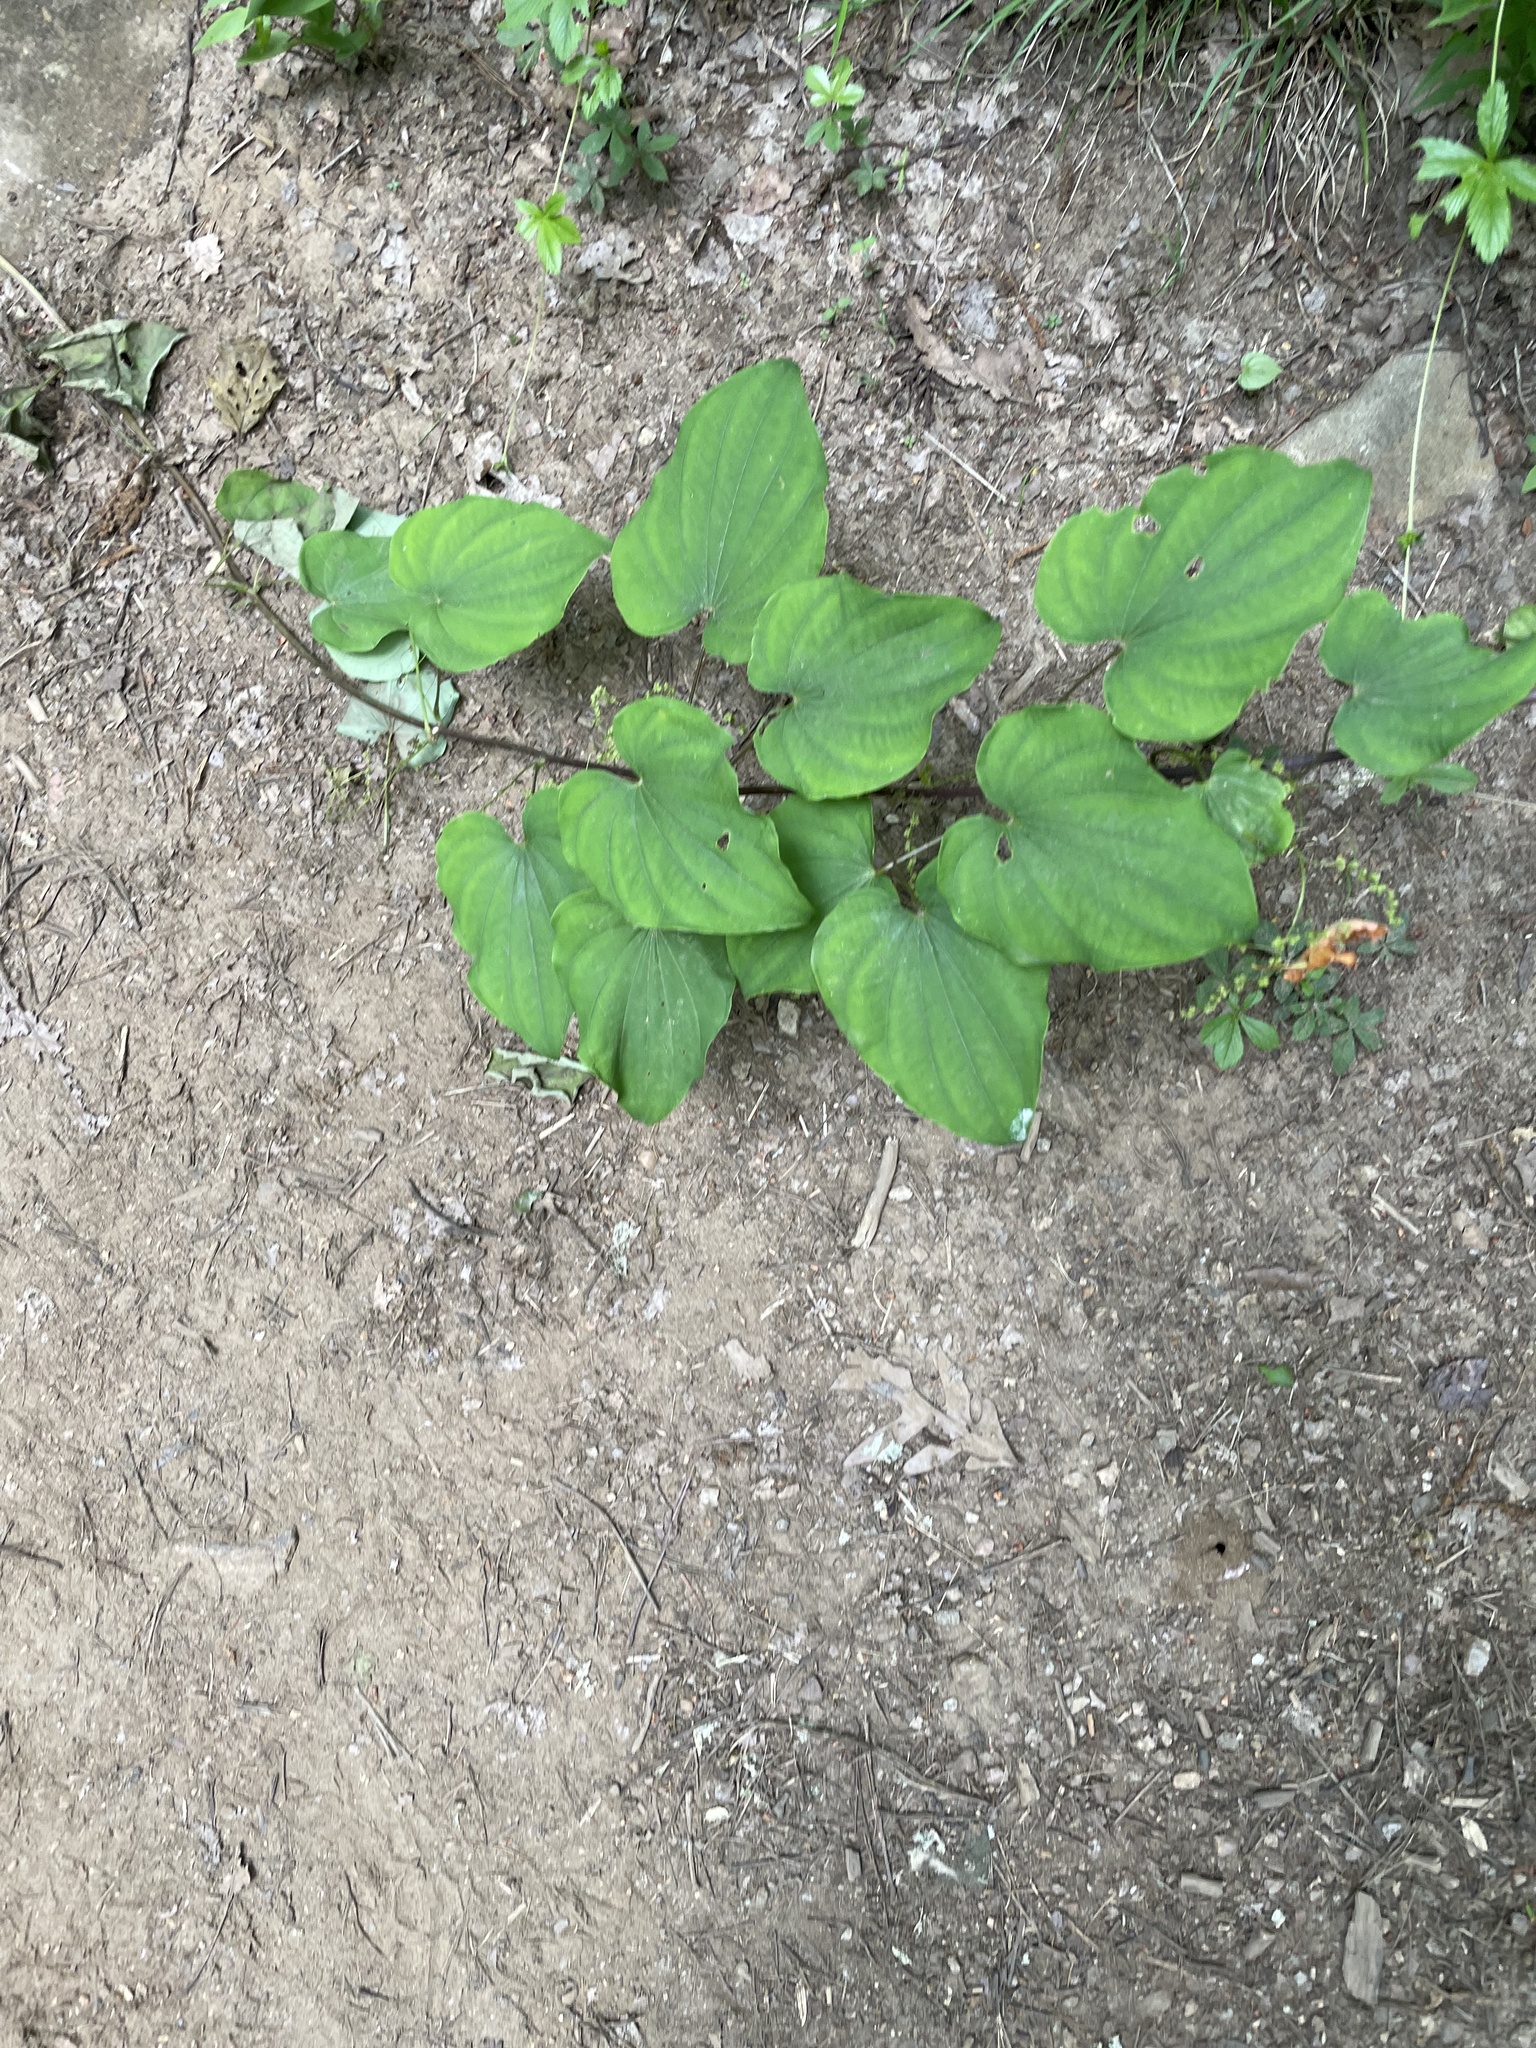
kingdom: Plantae
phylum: Tracheophyta
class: Liliopsida
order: Dioscoreales
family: Dioscoreaceae
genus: Dioscorea
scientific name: Dioscorea villosa
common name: Wild yam
